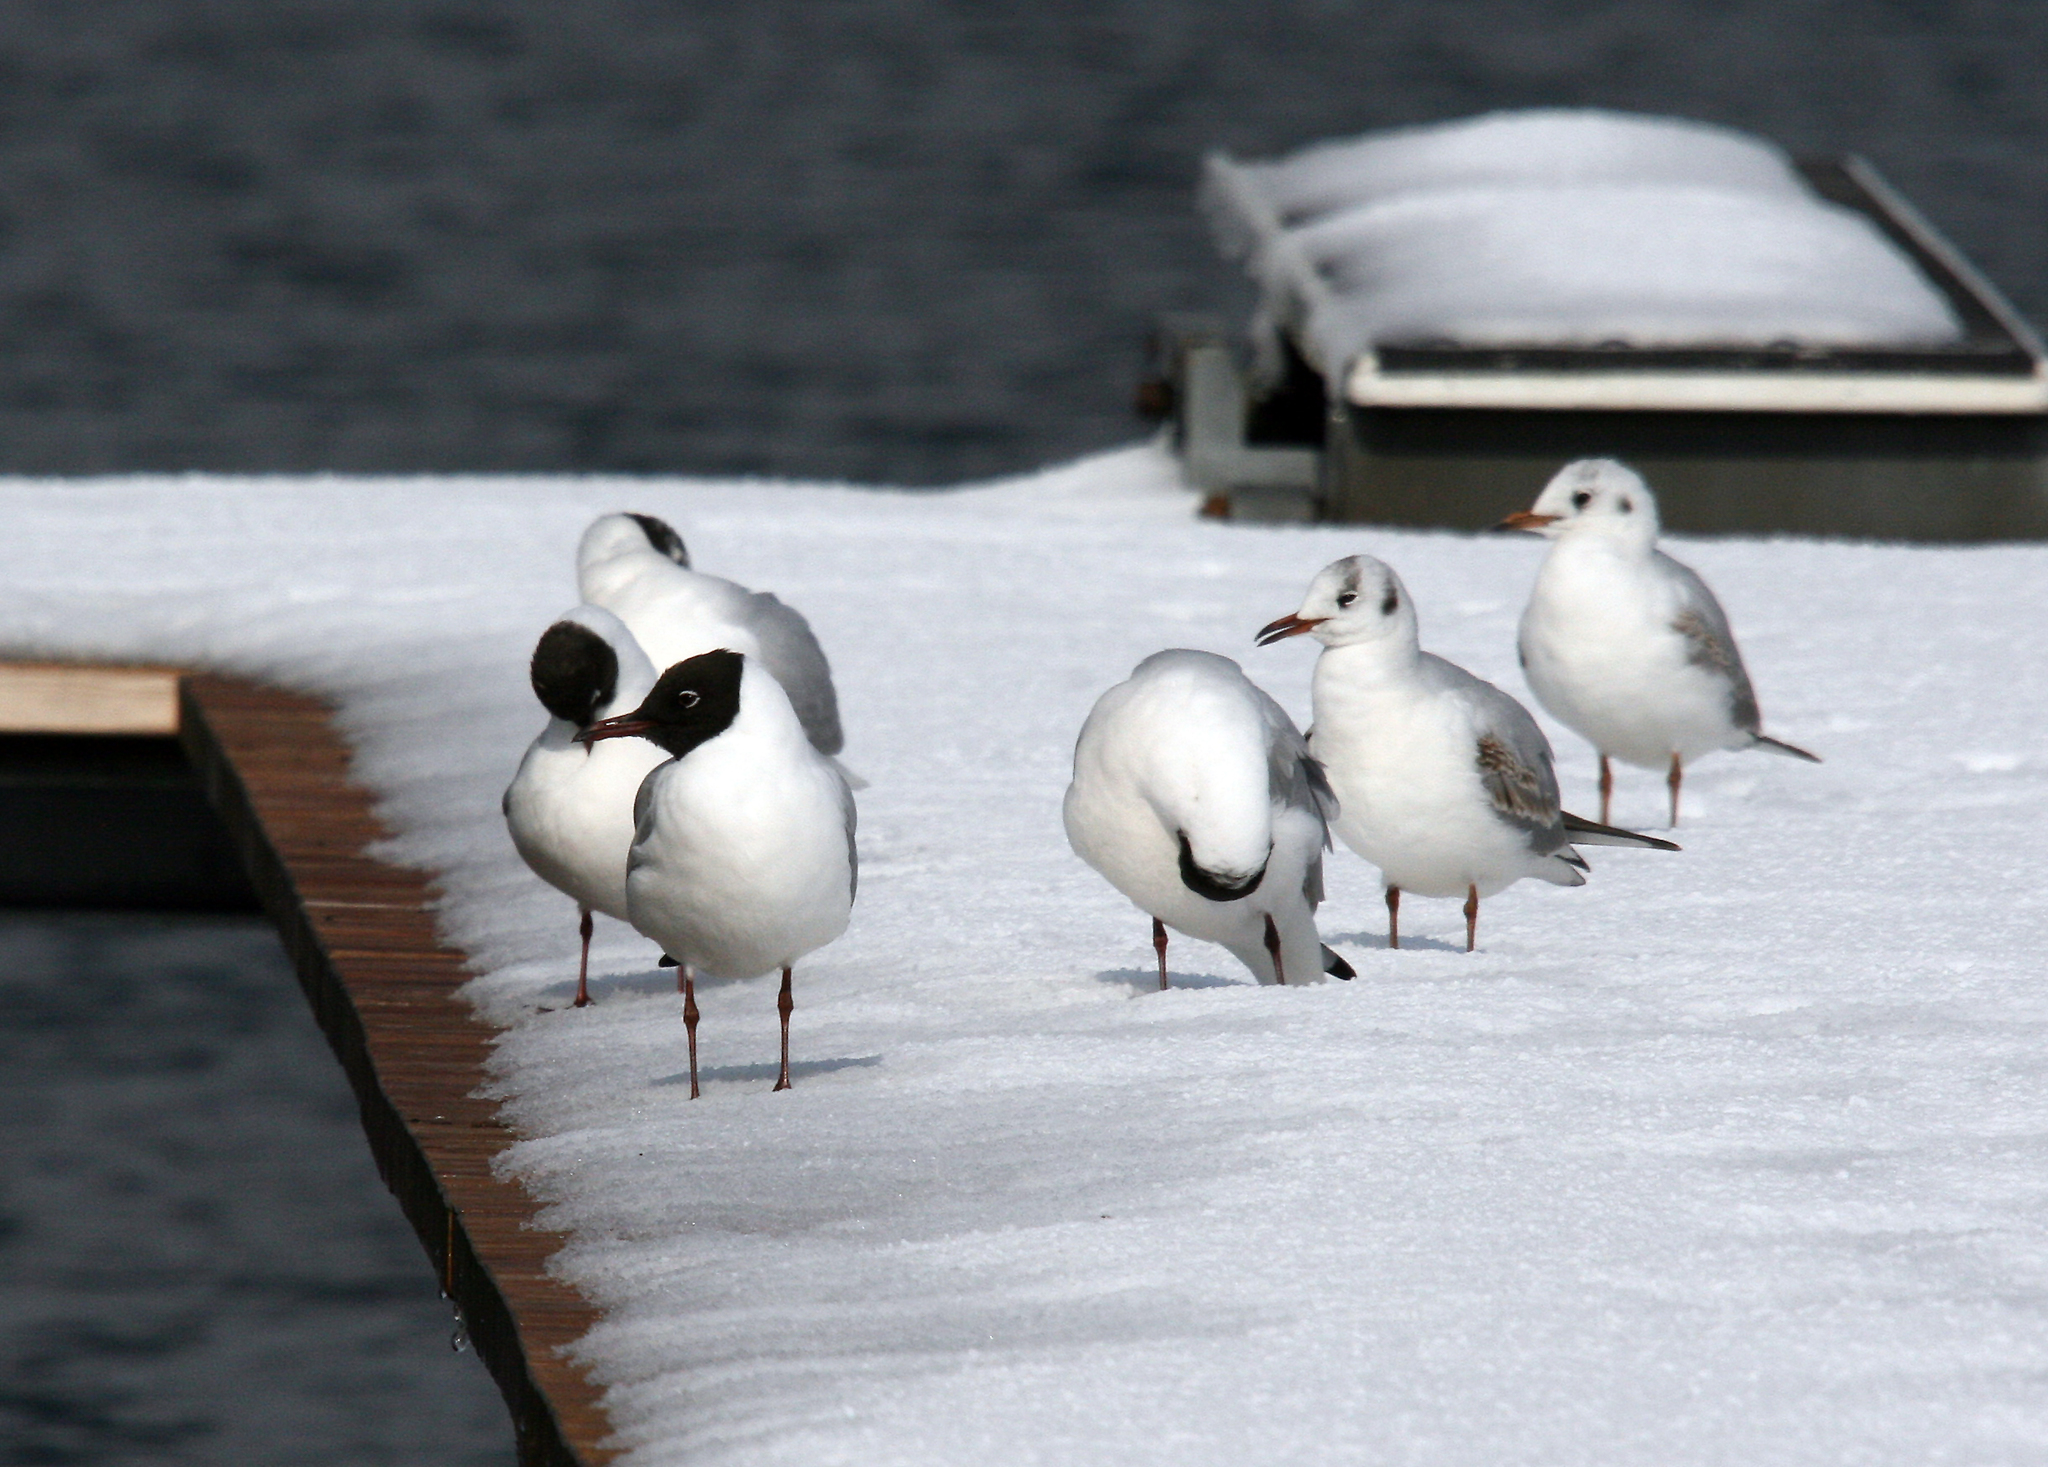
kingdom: Animalia
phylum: Chordata
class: Aves
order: Charadriiformes
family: Laridae
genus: Chroicocephalus
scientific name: Chroicocephalus ridibundus
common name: Black-headed gull
